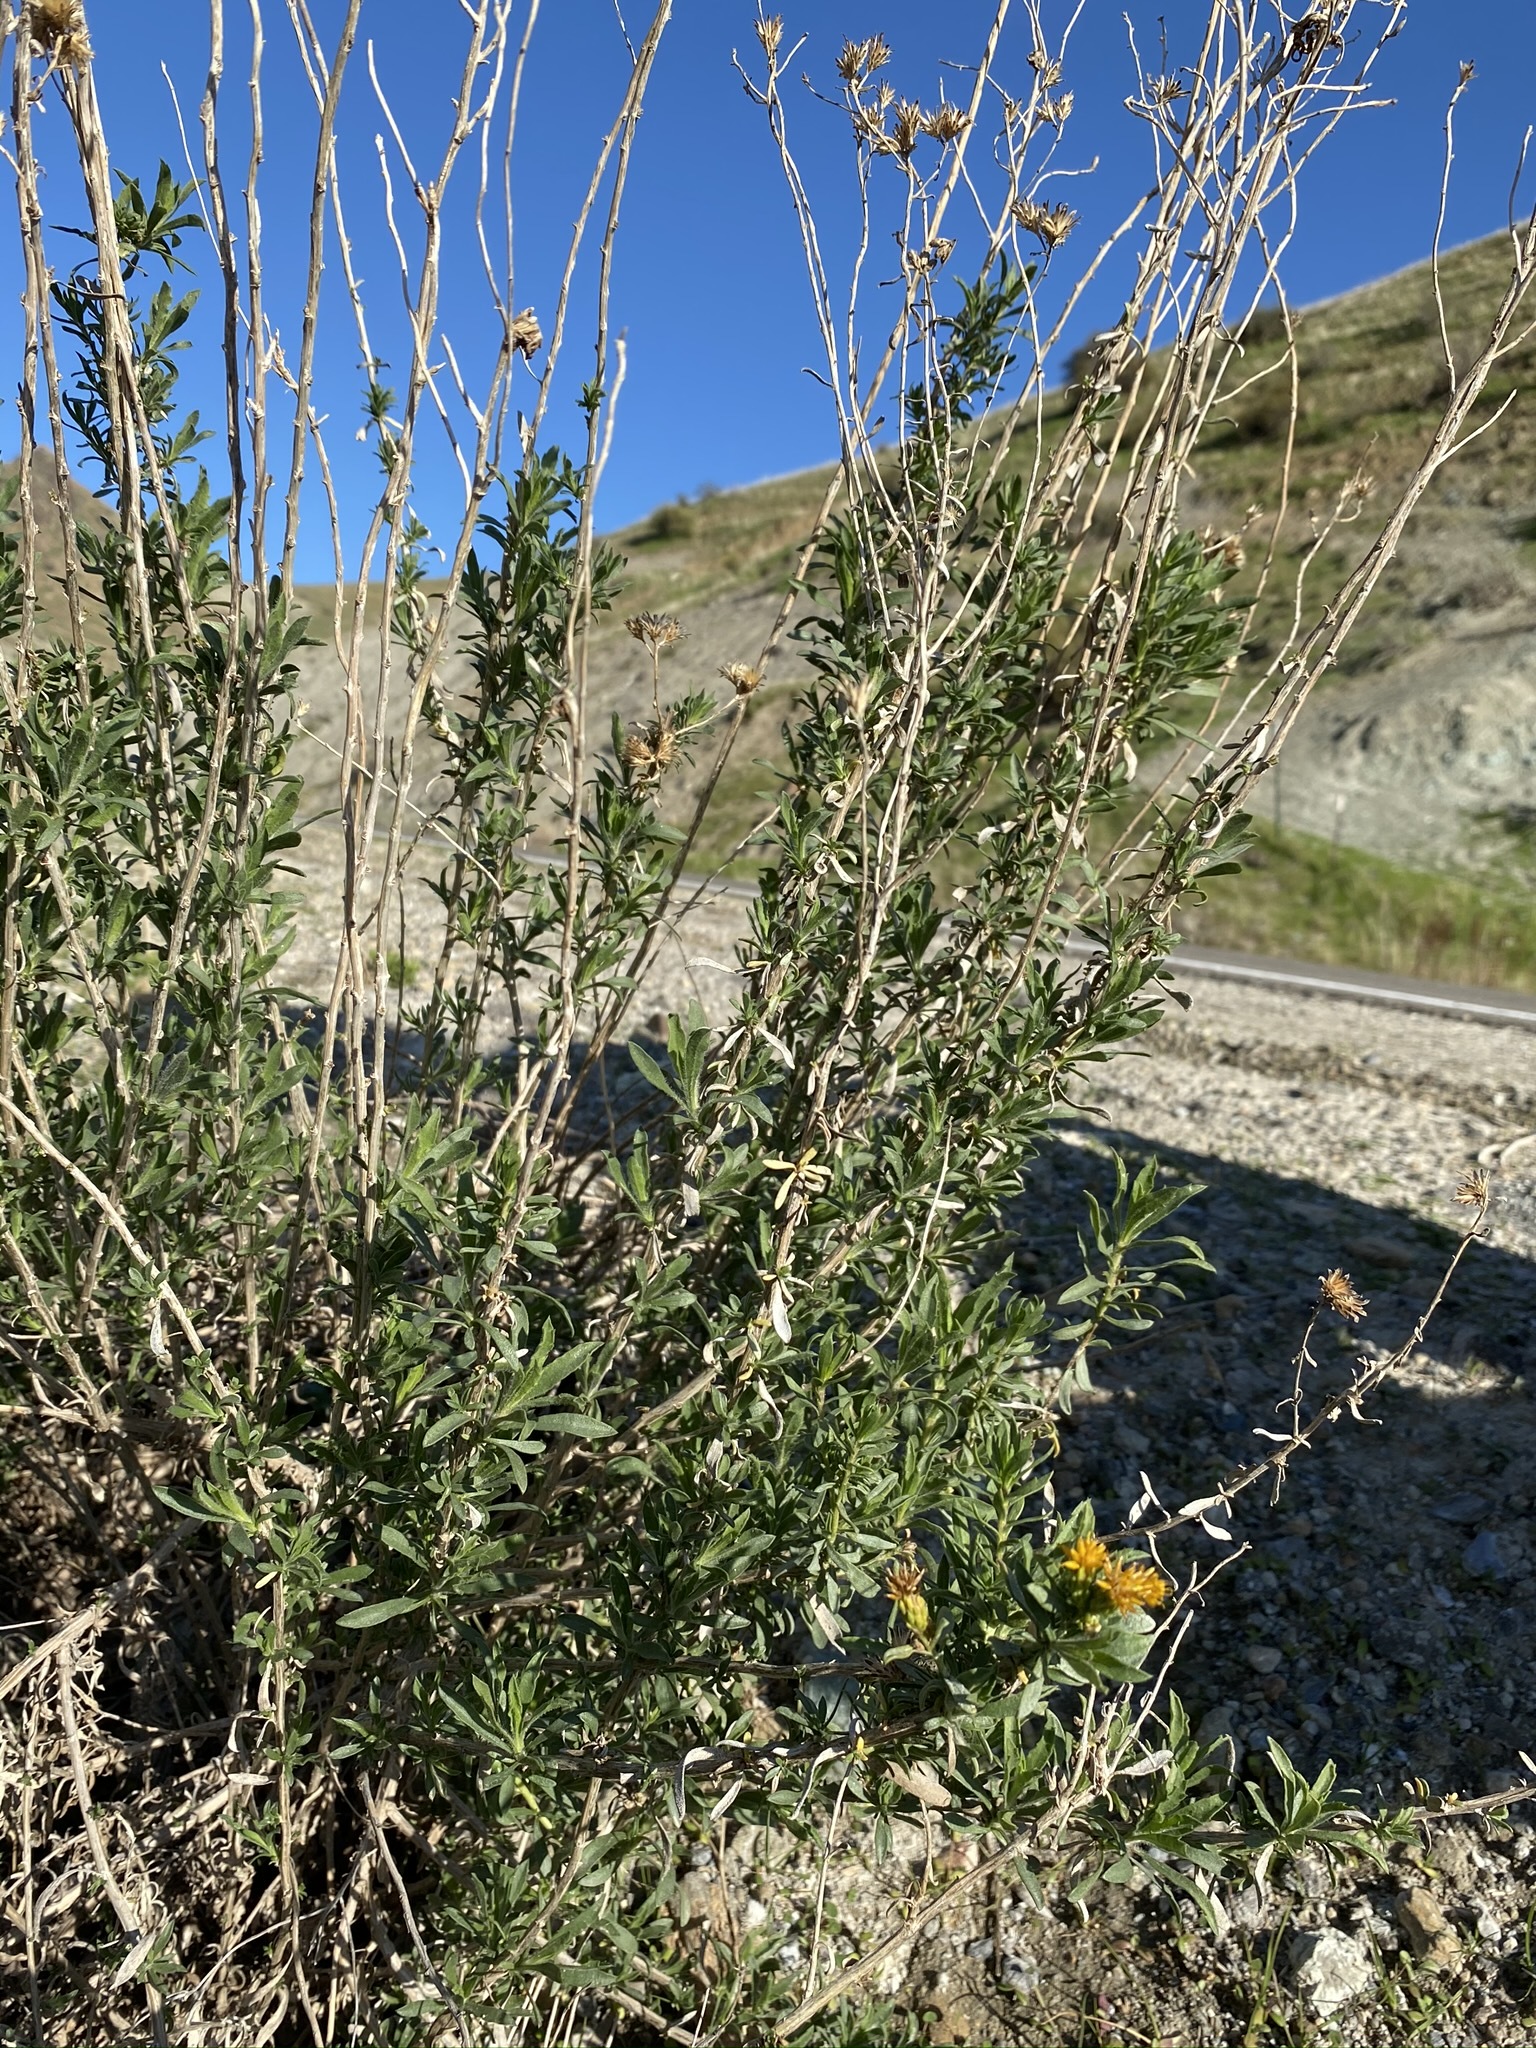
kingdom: Plantae
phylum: Tracheophyta
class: Magnoliopsida
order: Asterales
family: Asteraceae
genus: Isocoma
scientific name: Isocoma acradenia
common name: Alkali jimmyweed
